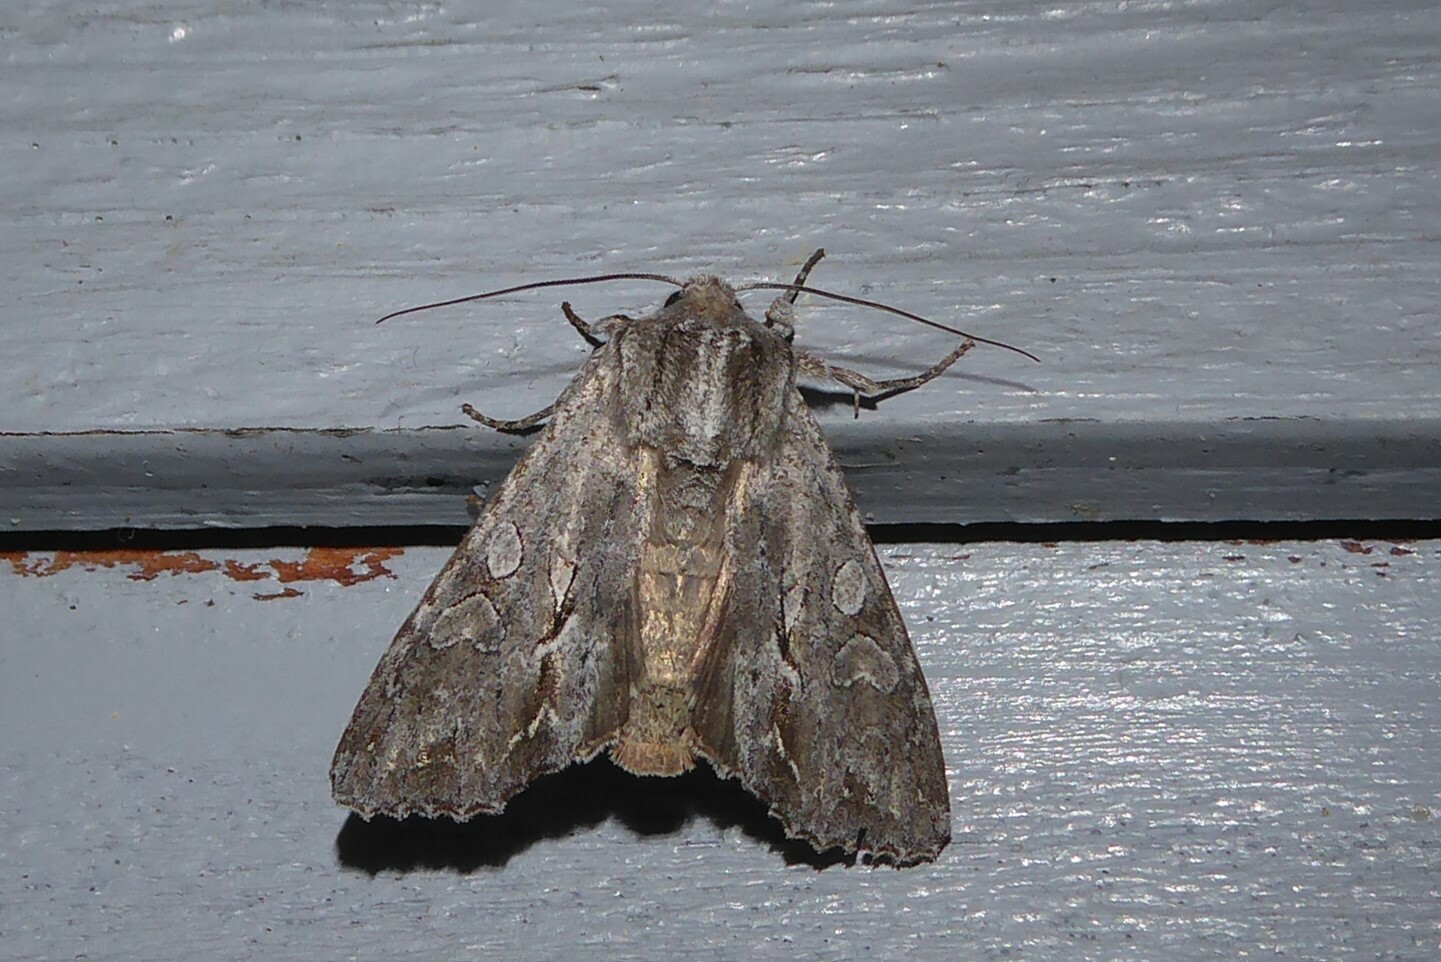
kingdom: Animalia
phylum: Arthropoda
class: Insecta
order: Lepidoptera
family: Noctuidae
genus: Ichneutica
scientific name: Ichneutica
